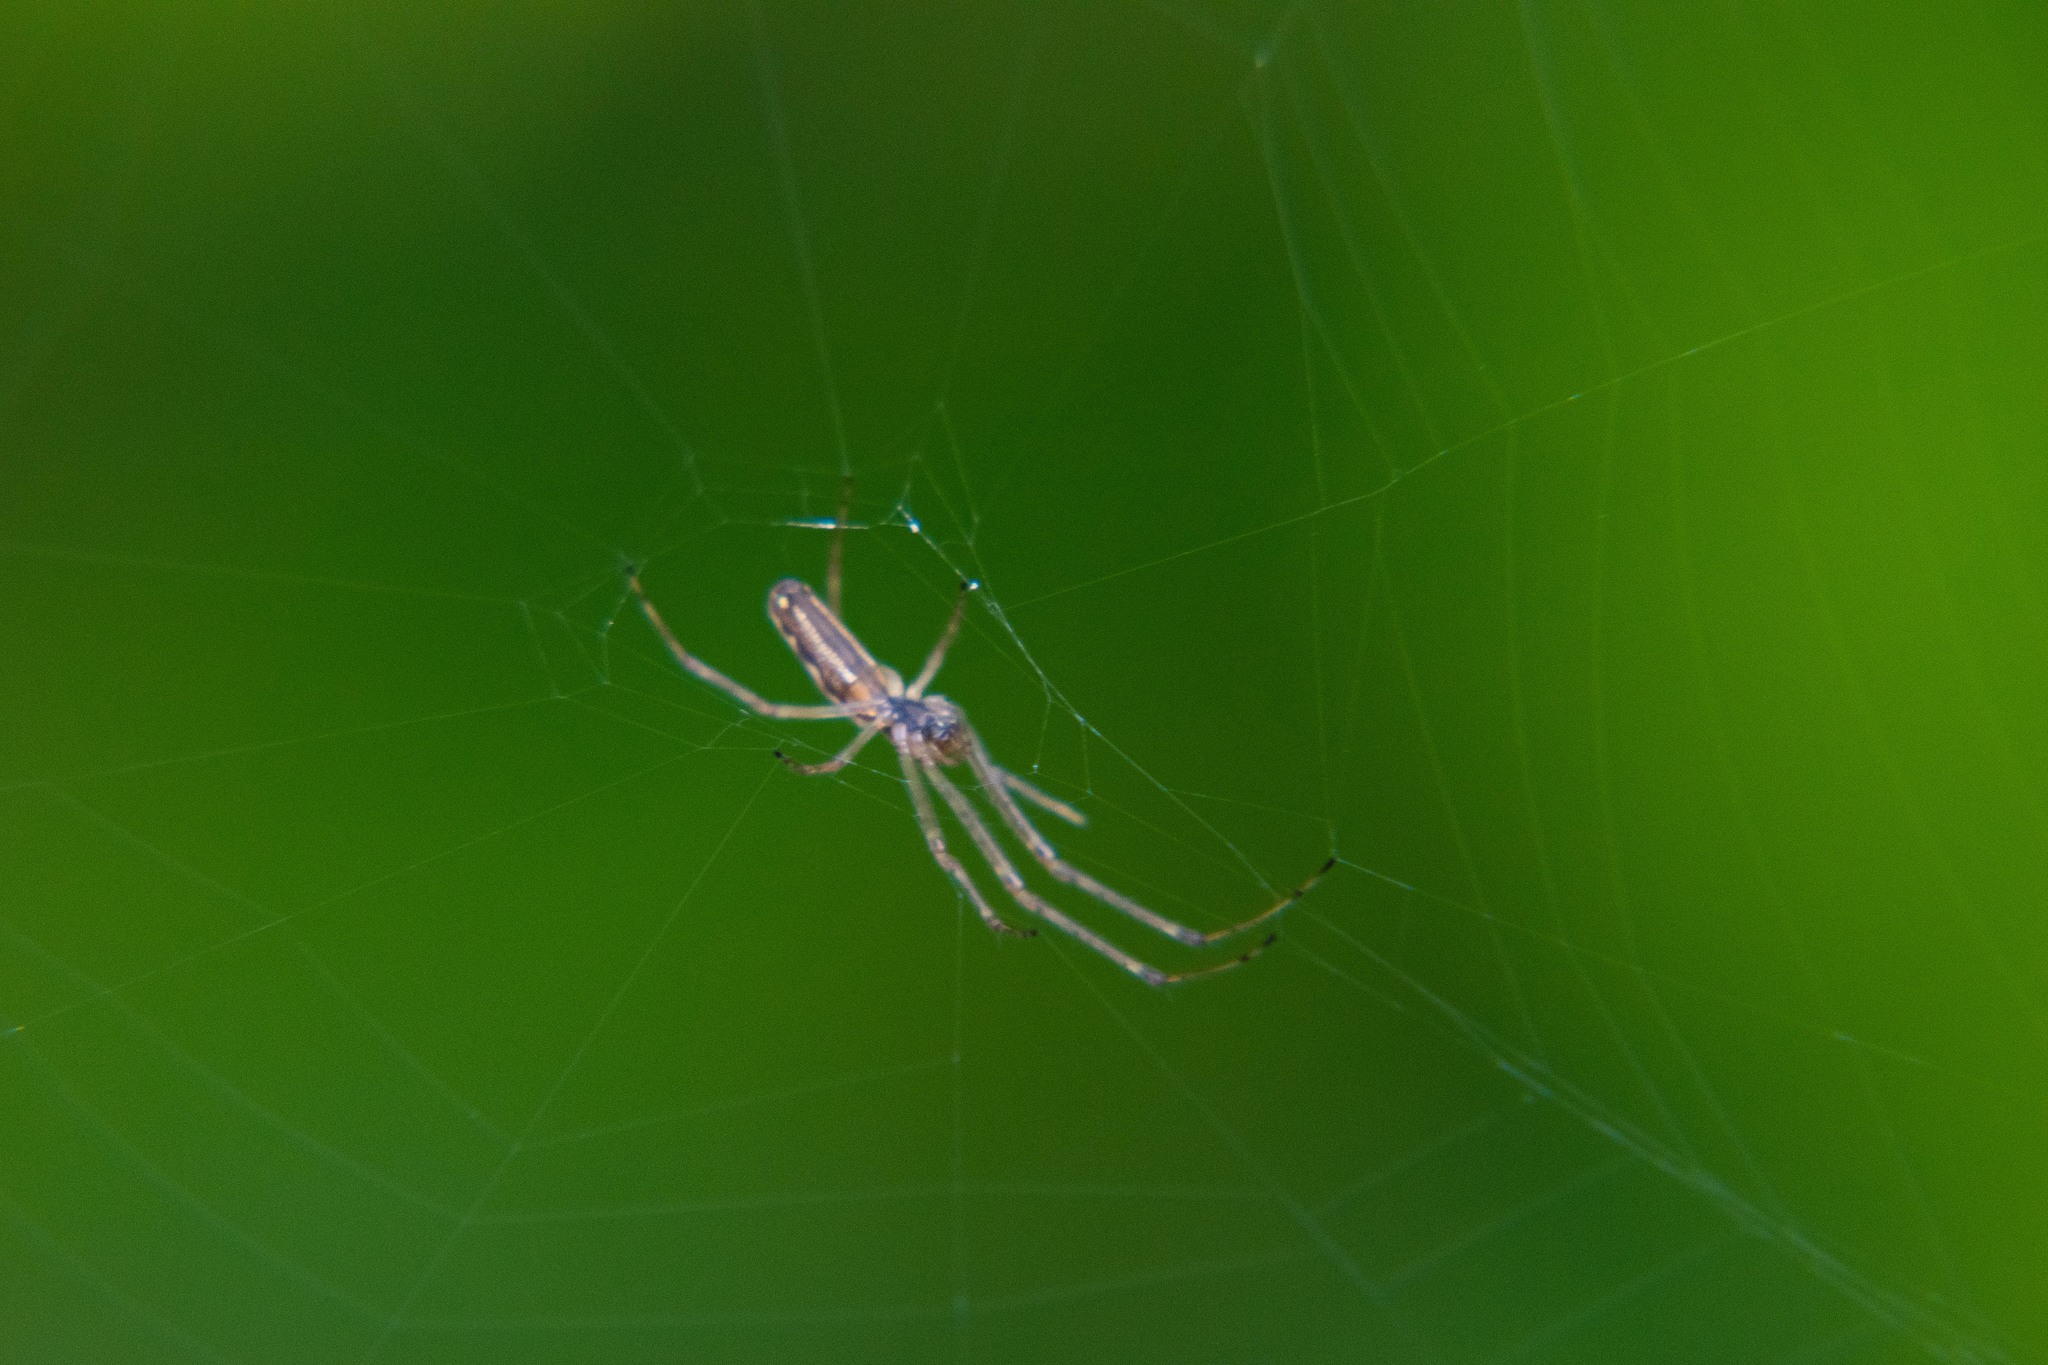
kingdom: Animalia
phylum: Arthropoda
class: Arachnida
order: Araneae
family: Tetragnathidae
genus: Tetragnatha
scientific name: Tetragnatha extensa
